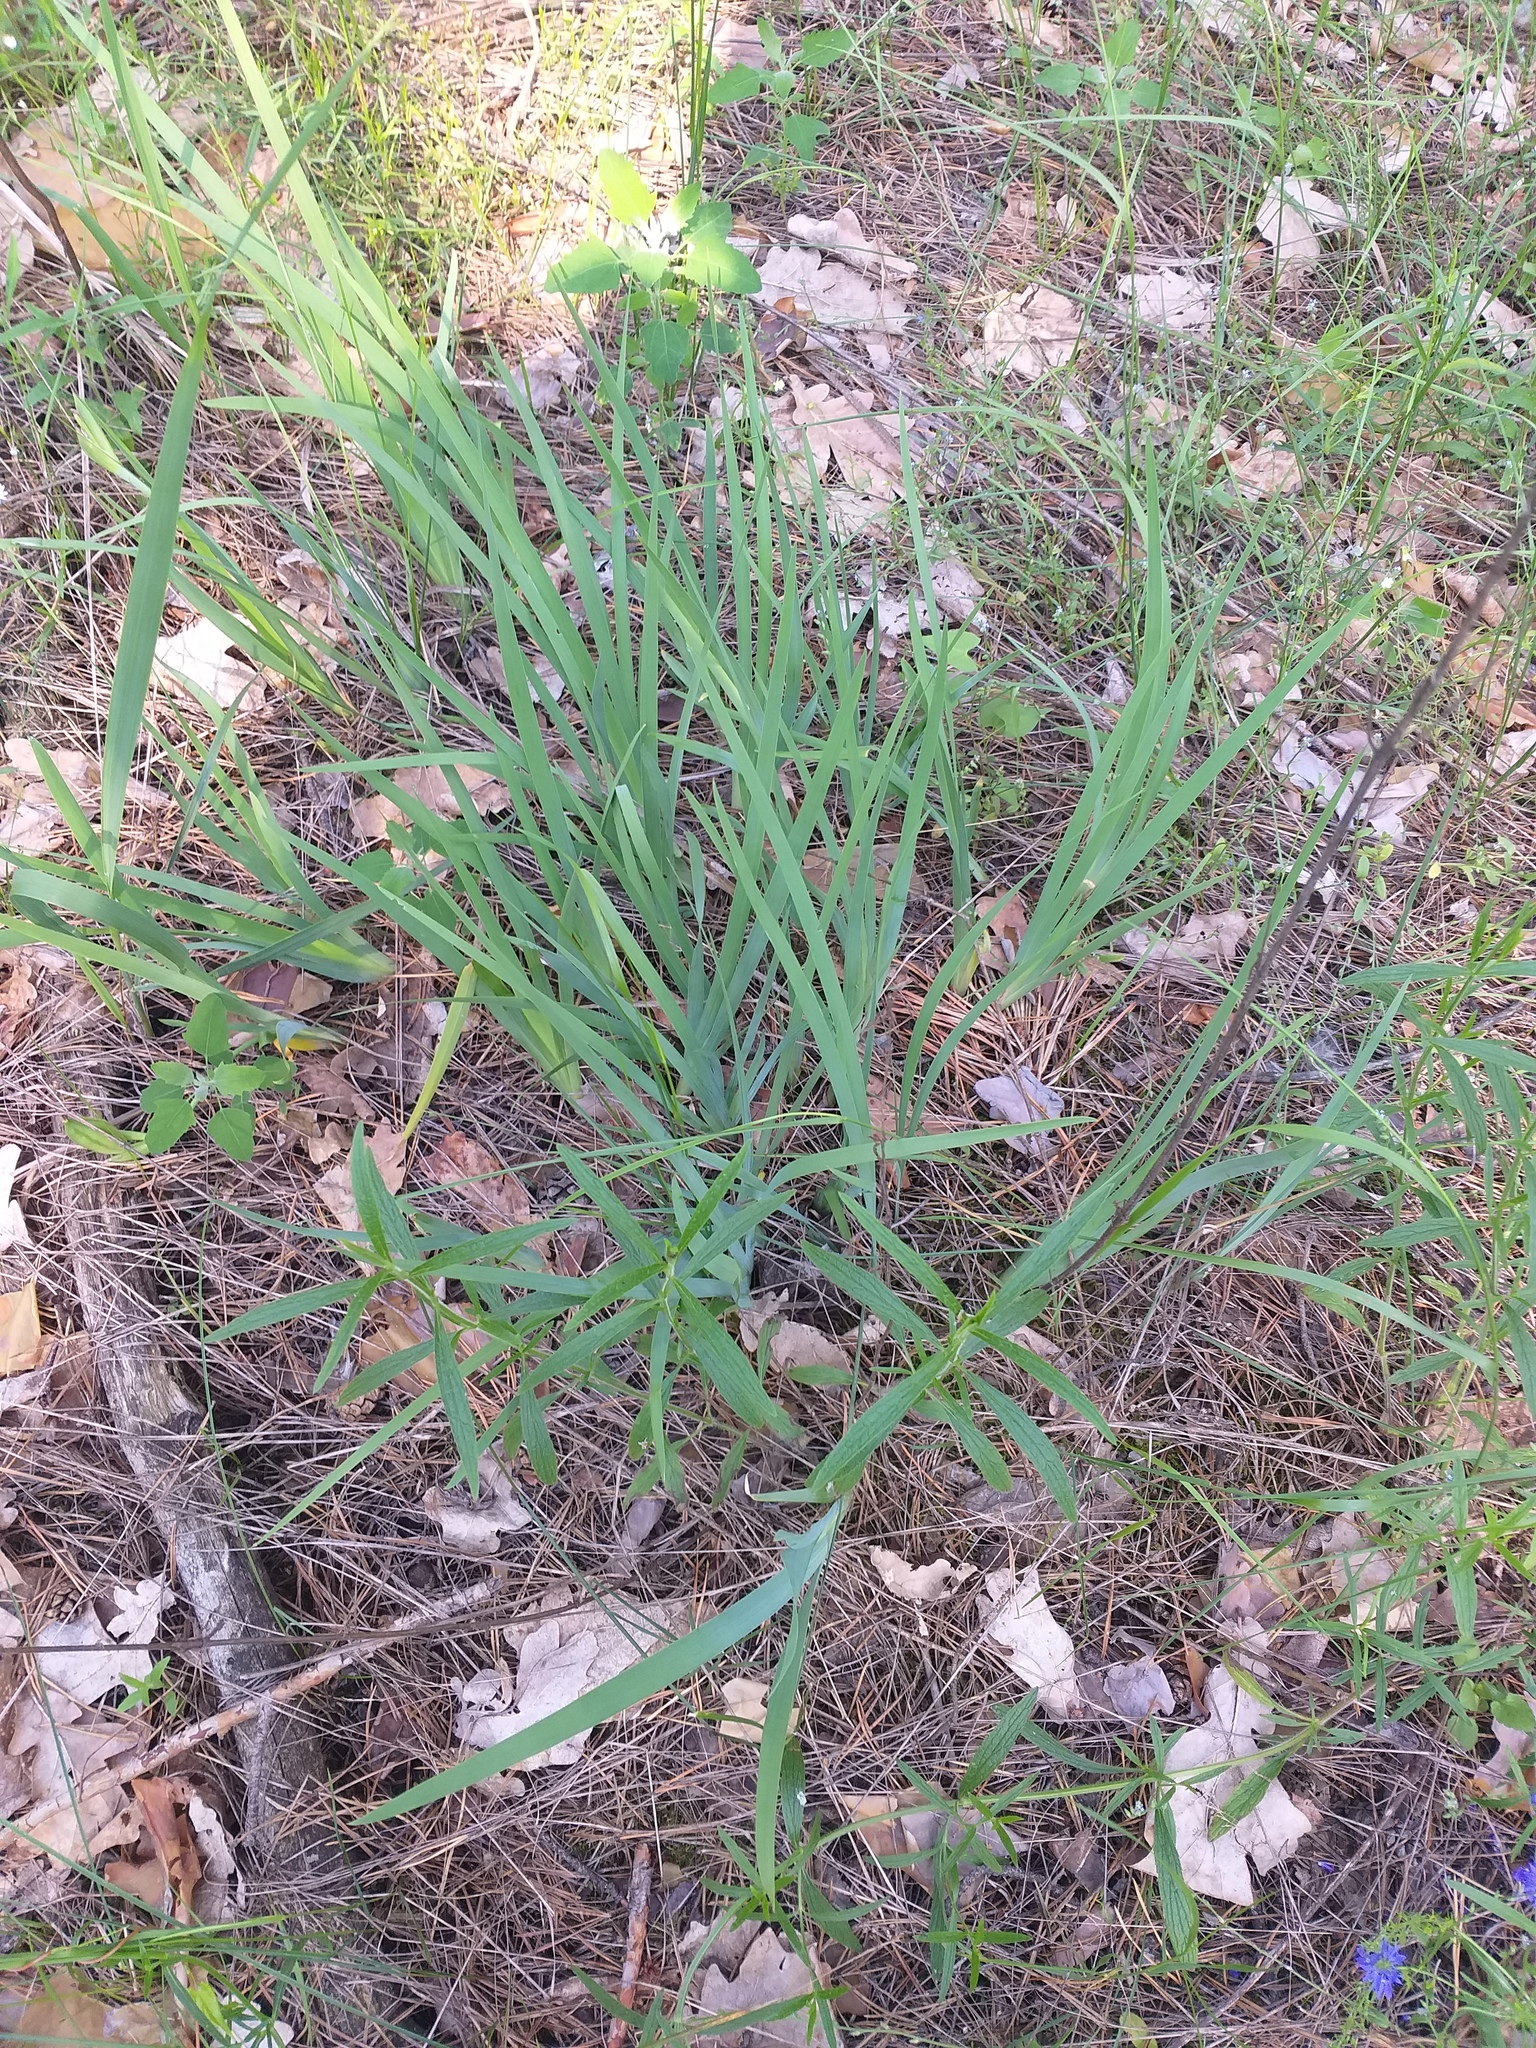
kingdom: Plantae
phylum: Tracheophyta
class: Liliopsida
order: Asparagales
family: Iridaceae
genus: Iris
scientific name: Iris arenaria
